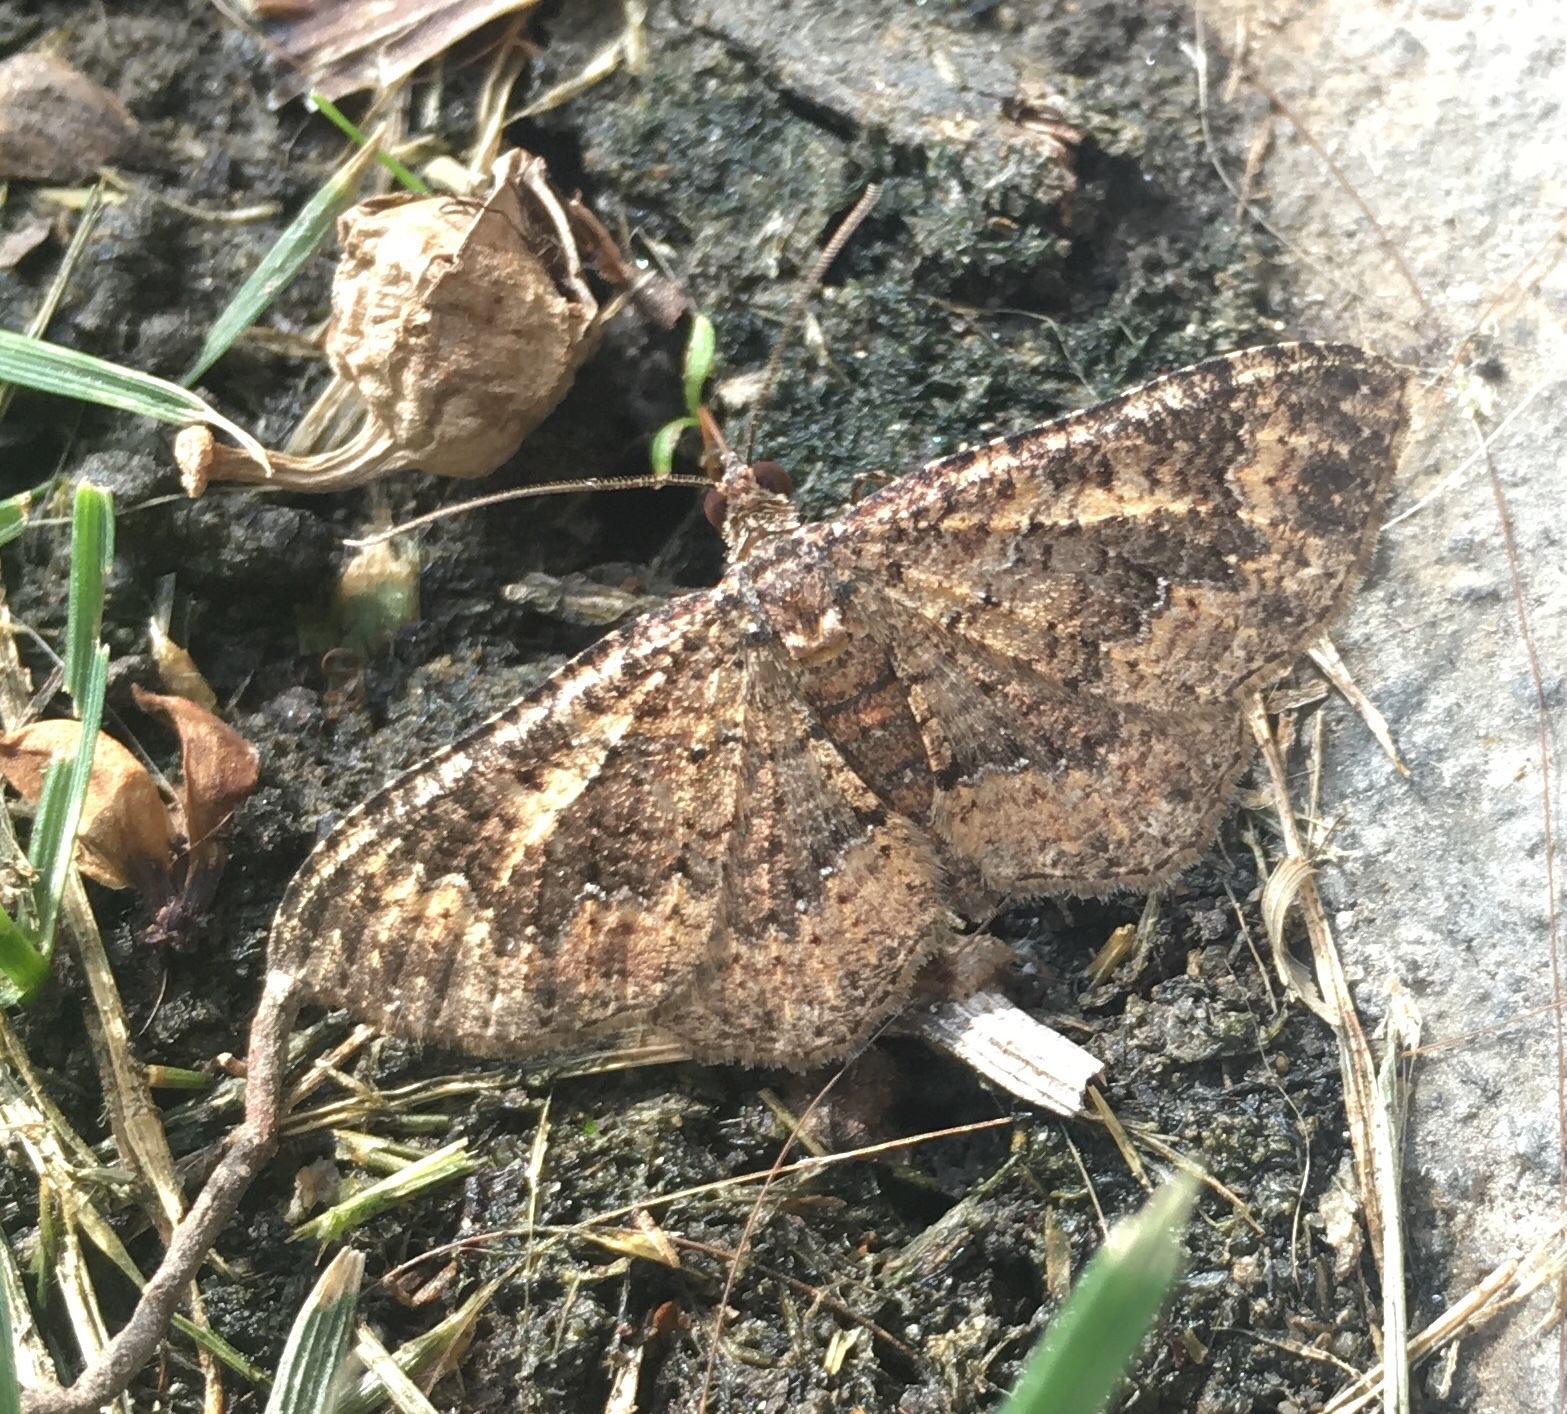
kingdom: Animalia
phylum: Arthropoda
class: Insecta
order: Lepidoptera
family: Geometridae
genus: Disclisioprocta
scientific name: Disclisioprocta stellata
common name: Somber carpet
